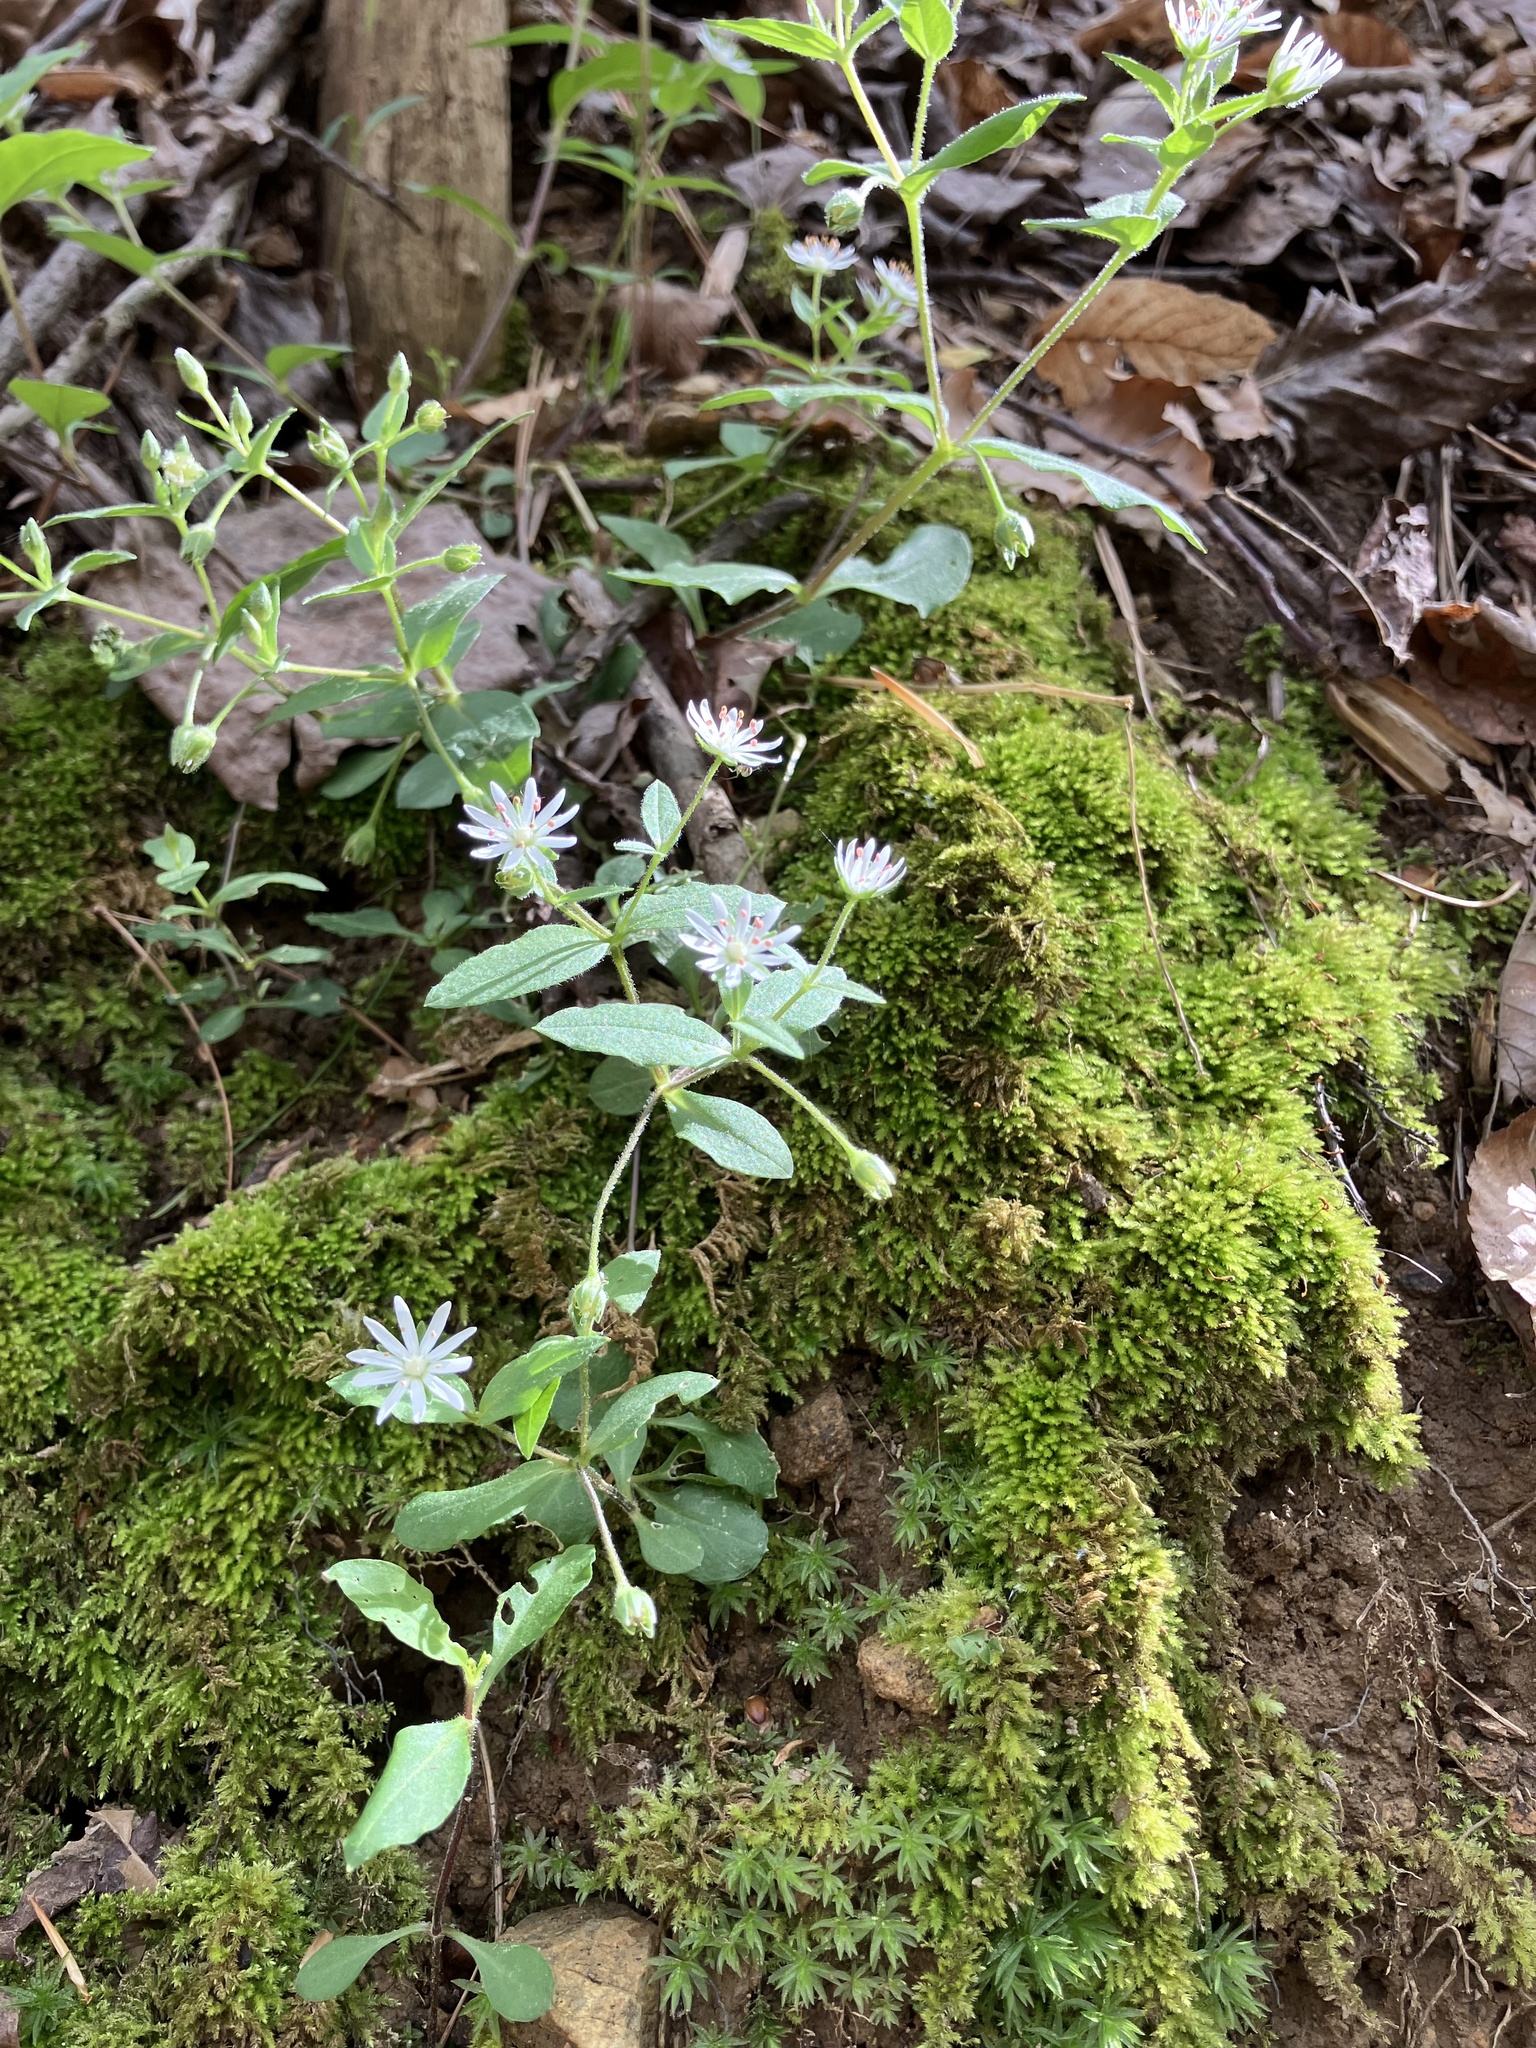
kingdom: Plantae
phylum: Tracheophyta
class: Magnoliopsida
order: Caryophyllales
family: Caryophyllaceae
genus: Stellaria
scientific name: Stellaria pubera
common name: Star chickweed
